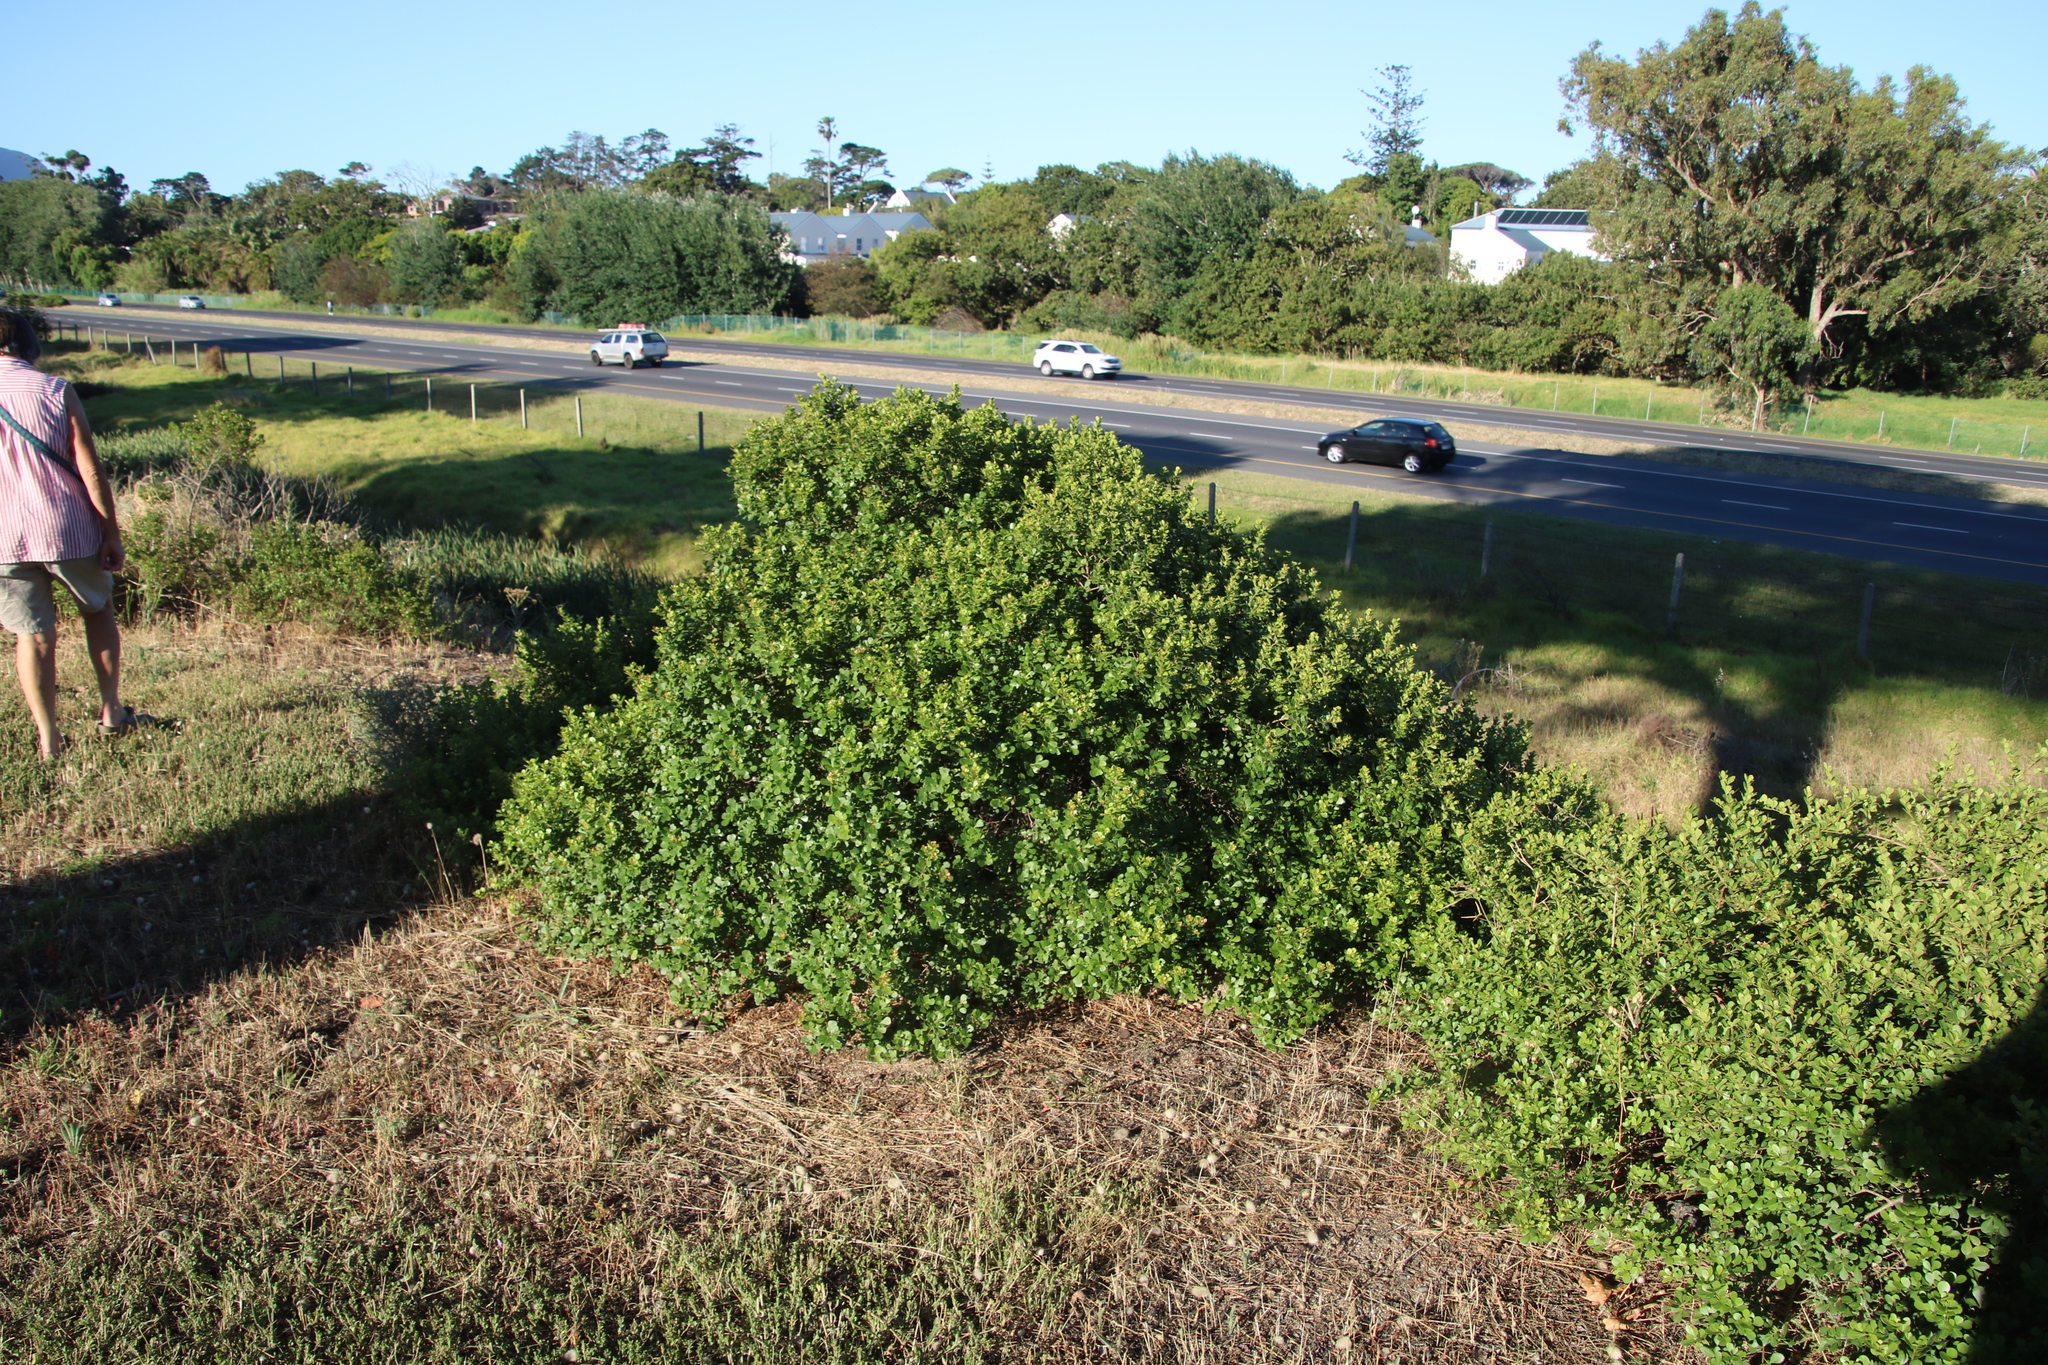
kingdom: Plantae
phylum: Tracheophyta
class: Magnoliopsida
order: Sapindales
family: Anacardiaceae
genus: Searsia
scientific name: Searsia crenata
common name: Crowberry
